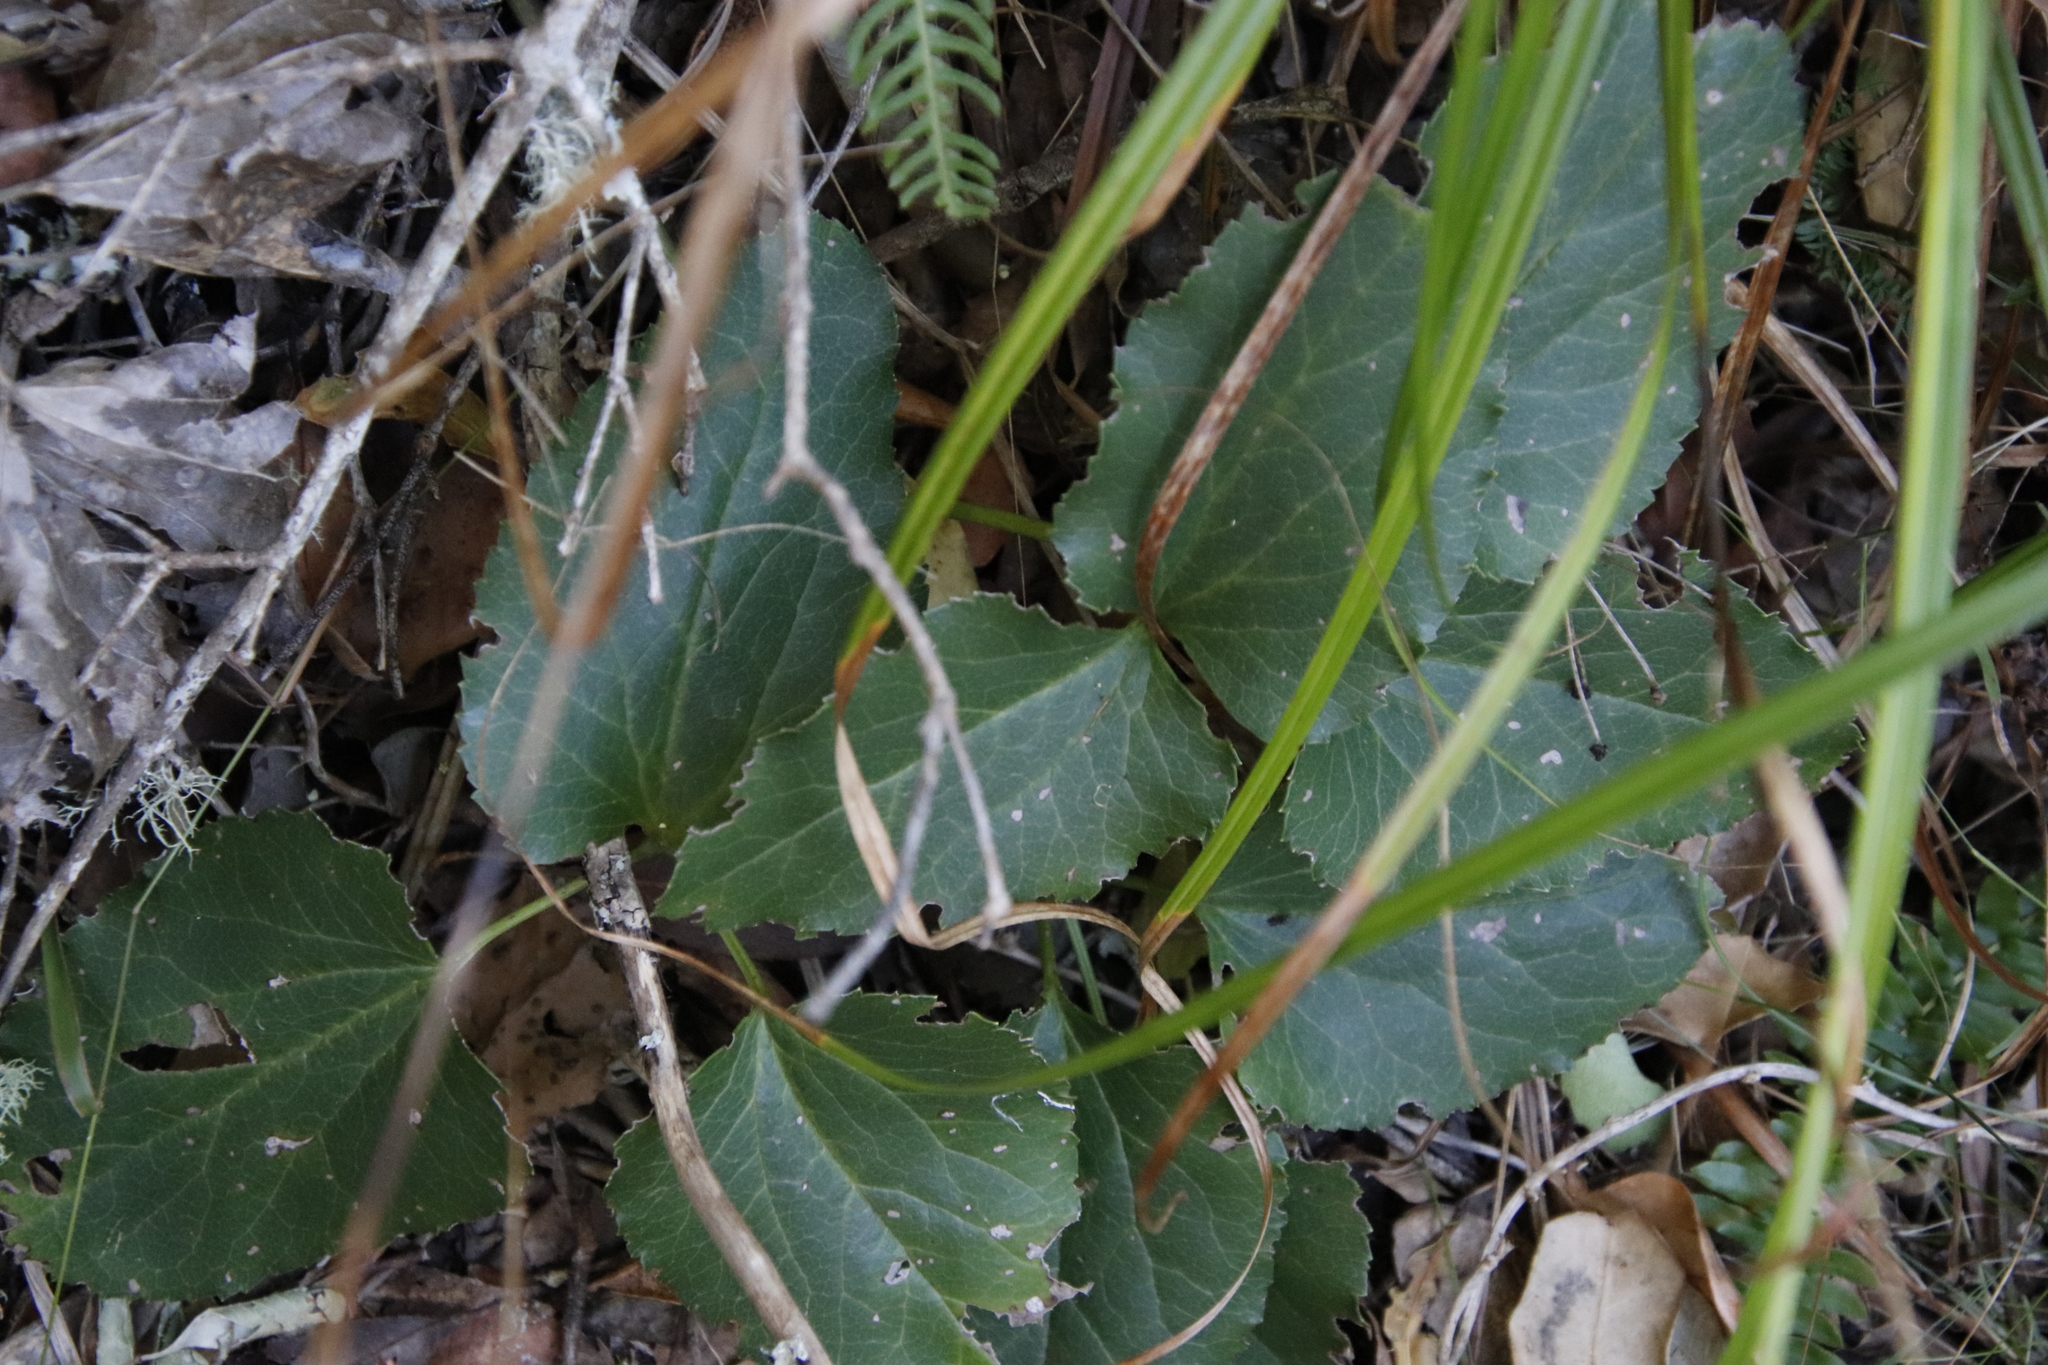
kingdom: Plantae
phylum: Tracheophyta
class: Magnoliopsida
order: Ranunculales
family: Ranunculaceae
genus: Knowltonia
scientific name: Knowltonia vesicatoria
